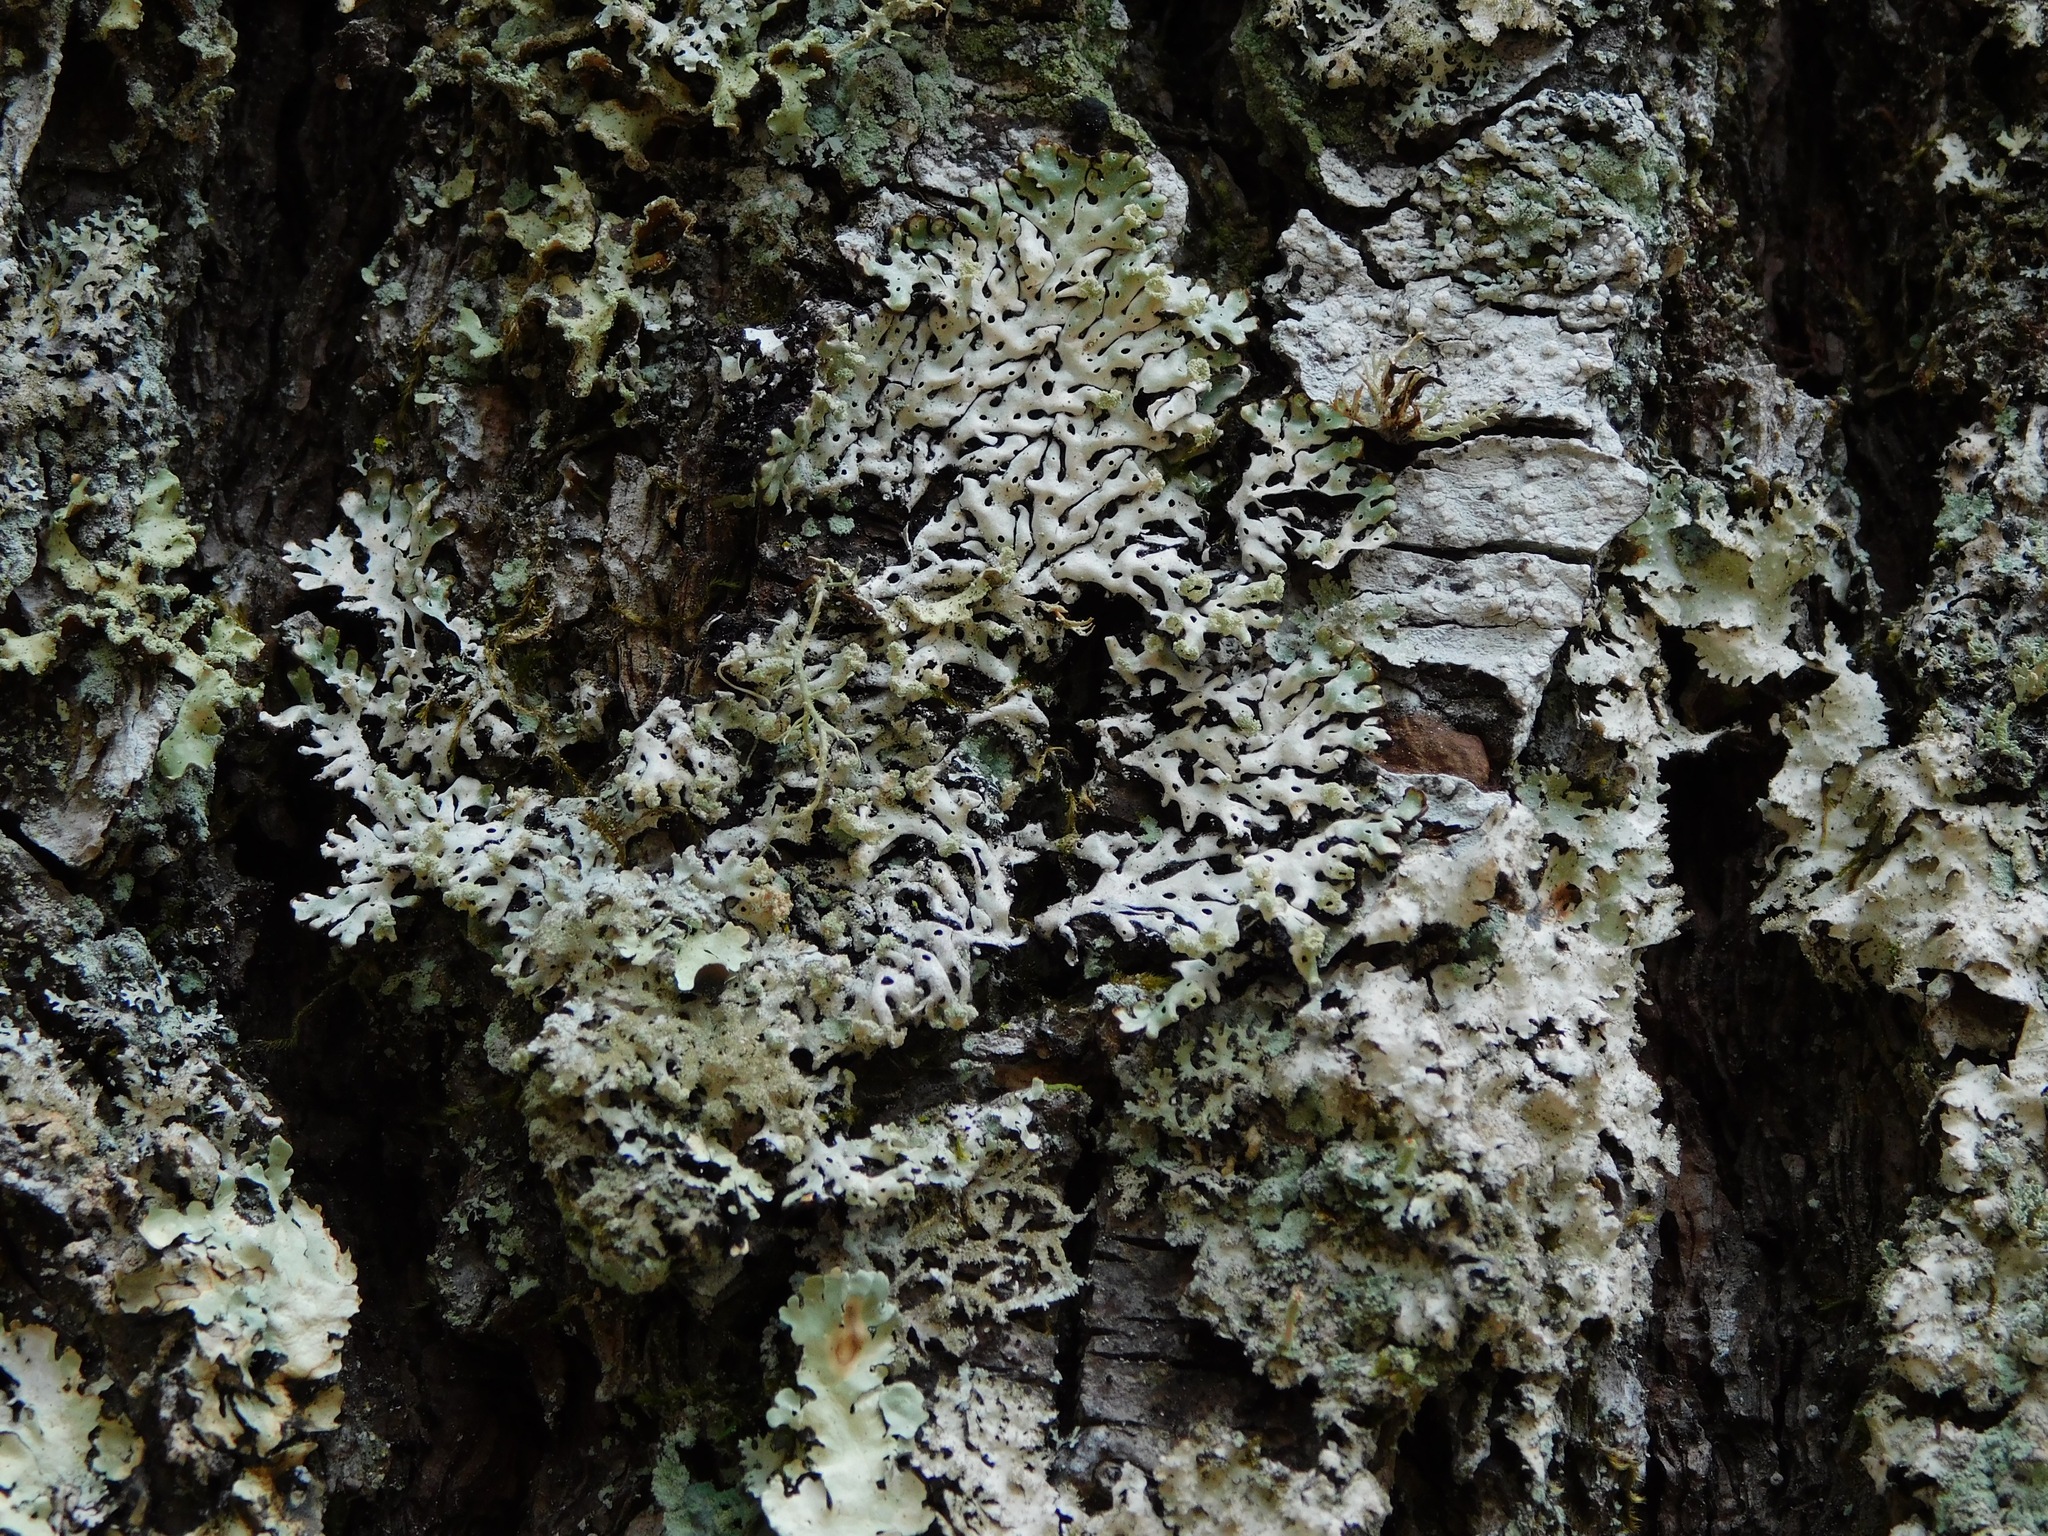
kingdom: Fungi
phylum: Ascomycota
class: Lecanoromycetes
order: Lecanorales
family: Parmeliaceae
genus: Menegazzia
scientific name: Menegazzia subsimilis
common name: Tree flute lichen
